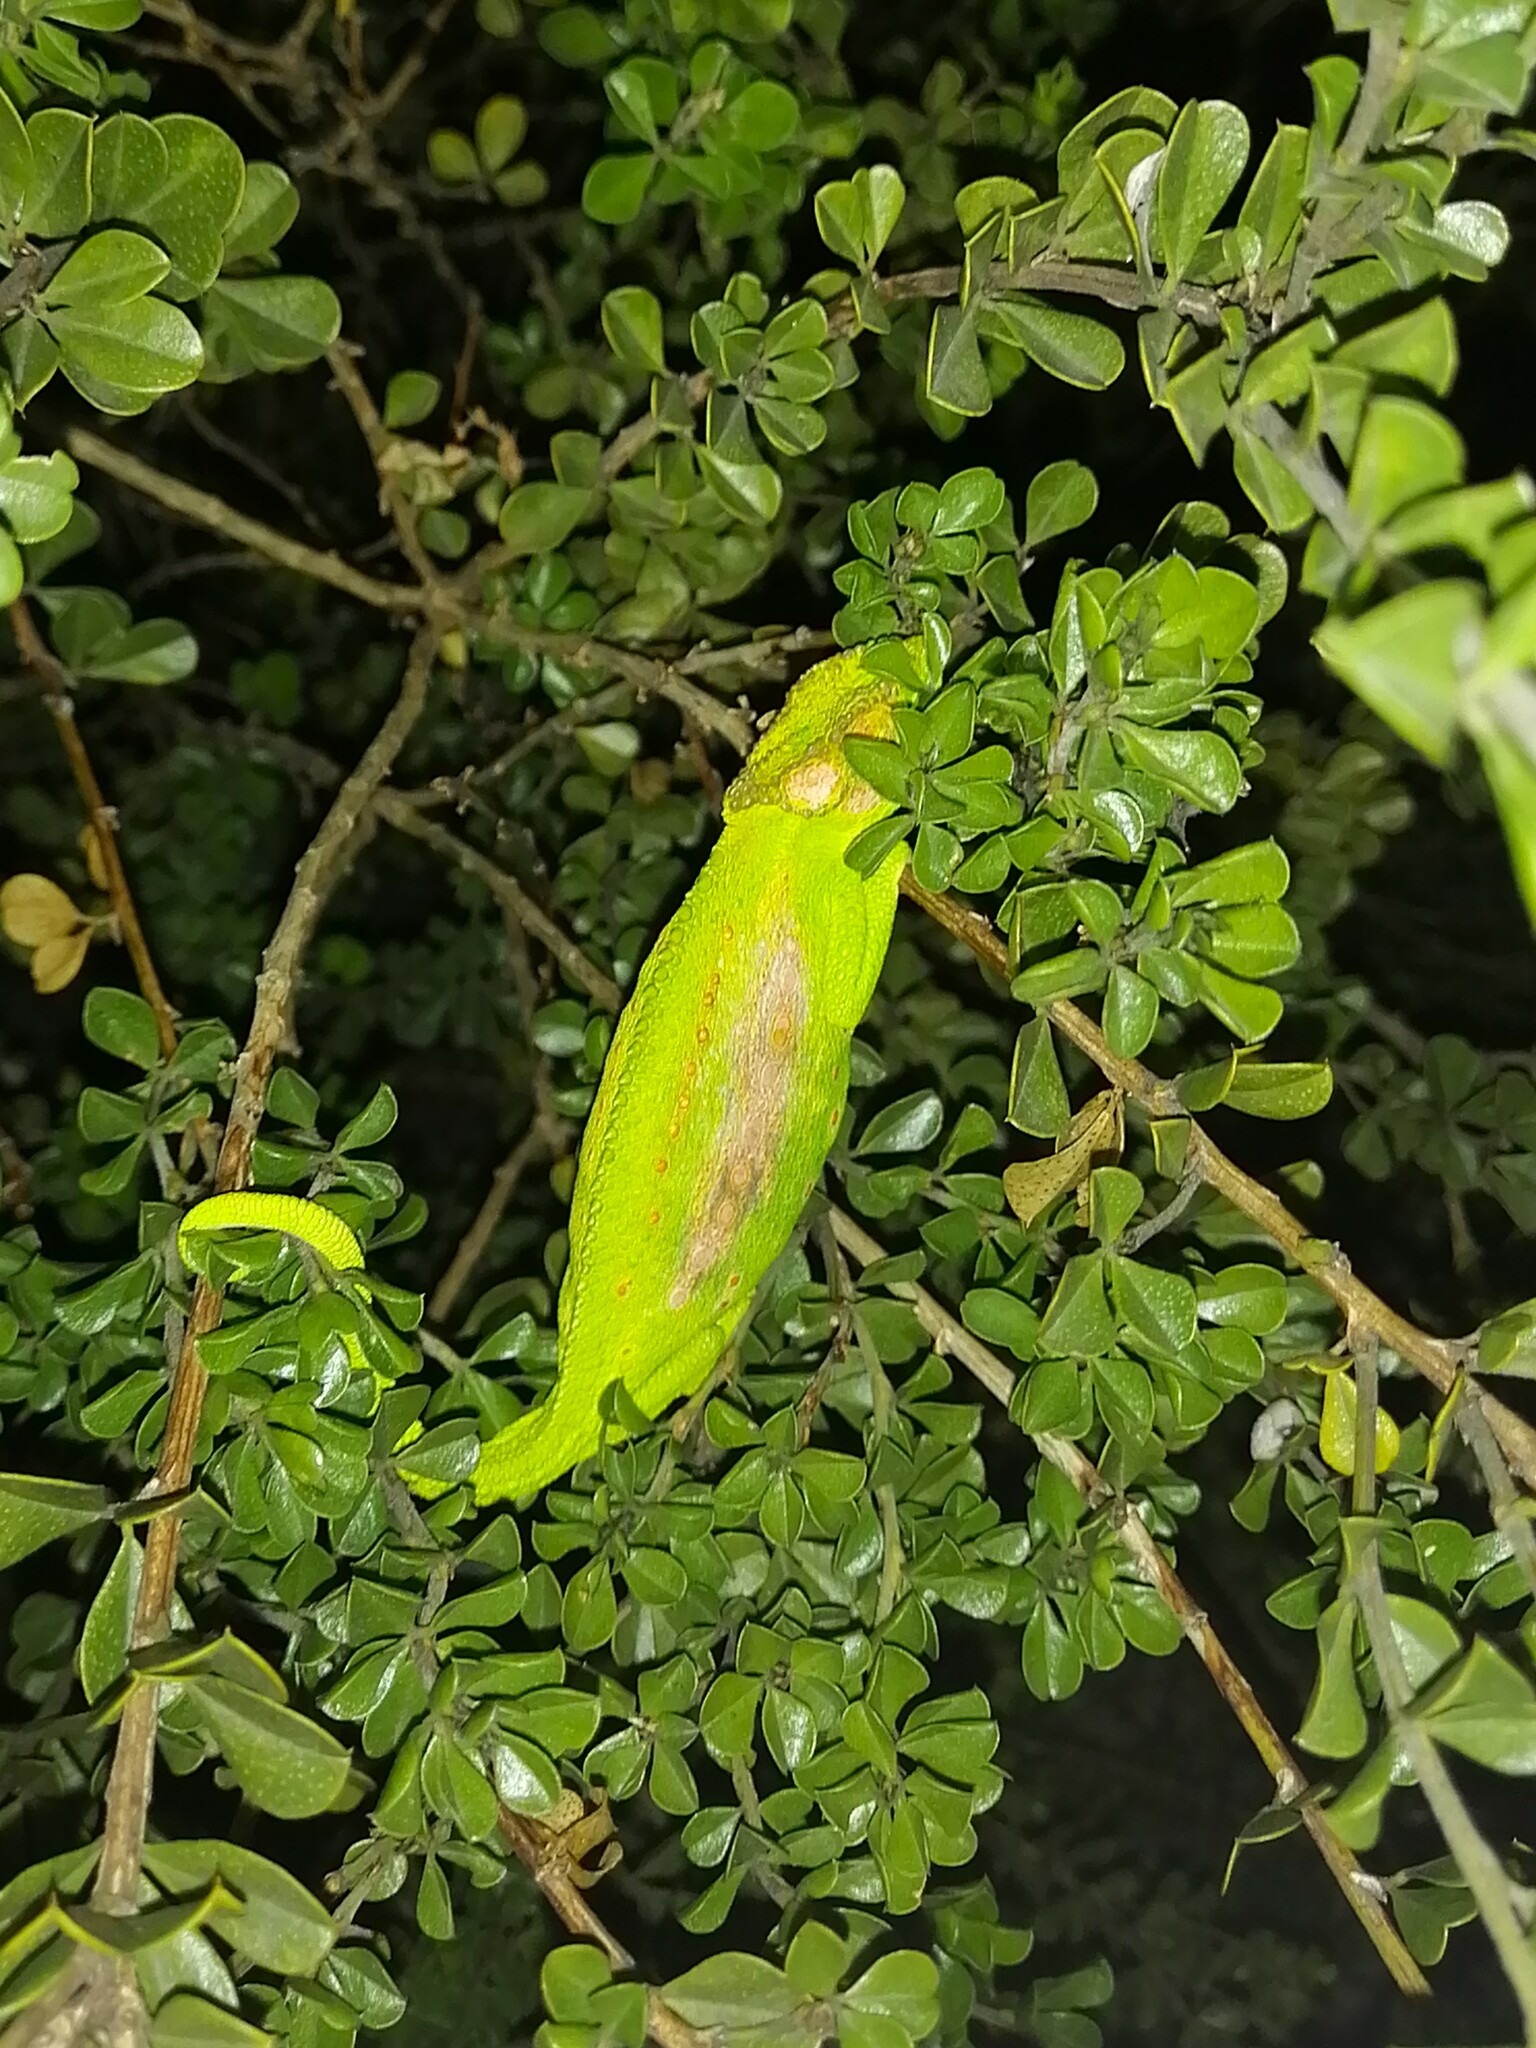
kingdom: Animalia
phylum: Chordata
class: Squamata
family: Chamaeleonidae
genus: Bradypodion
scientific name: Bradypodion pumilum
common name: Cape dwarf chameleon
